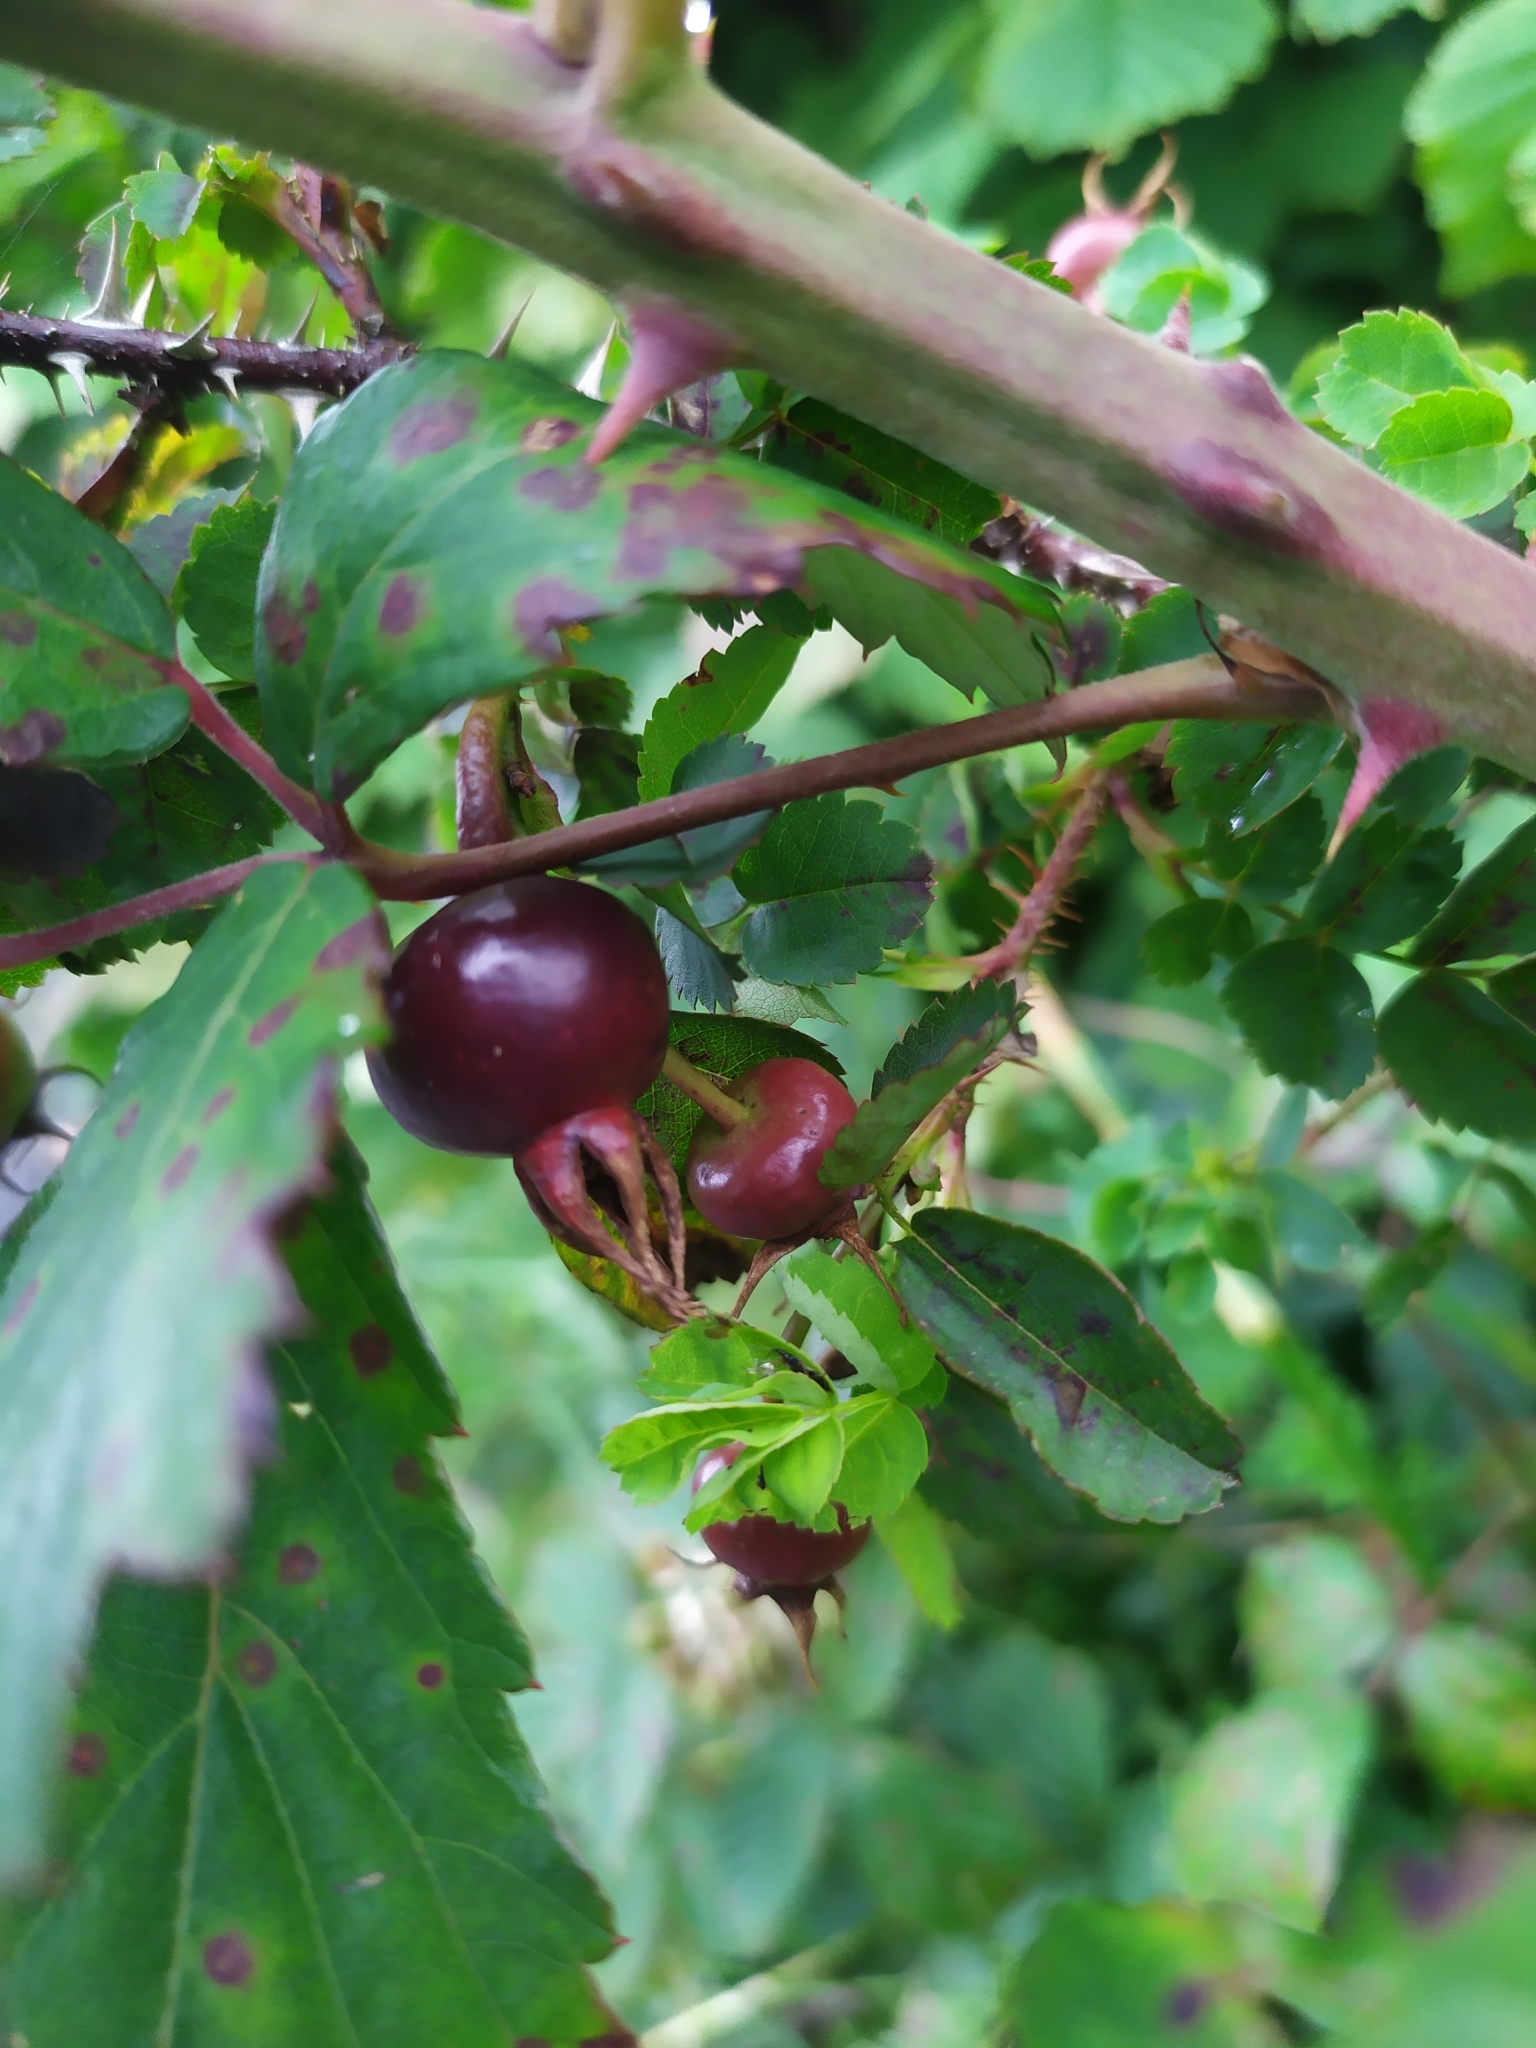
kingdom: Plantae
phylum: Tracheophyta
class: Magnoliopsida
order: Rosales
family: Rosaceae
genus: Rosa
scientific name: Rosa spinosissima
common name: Burnet rose
